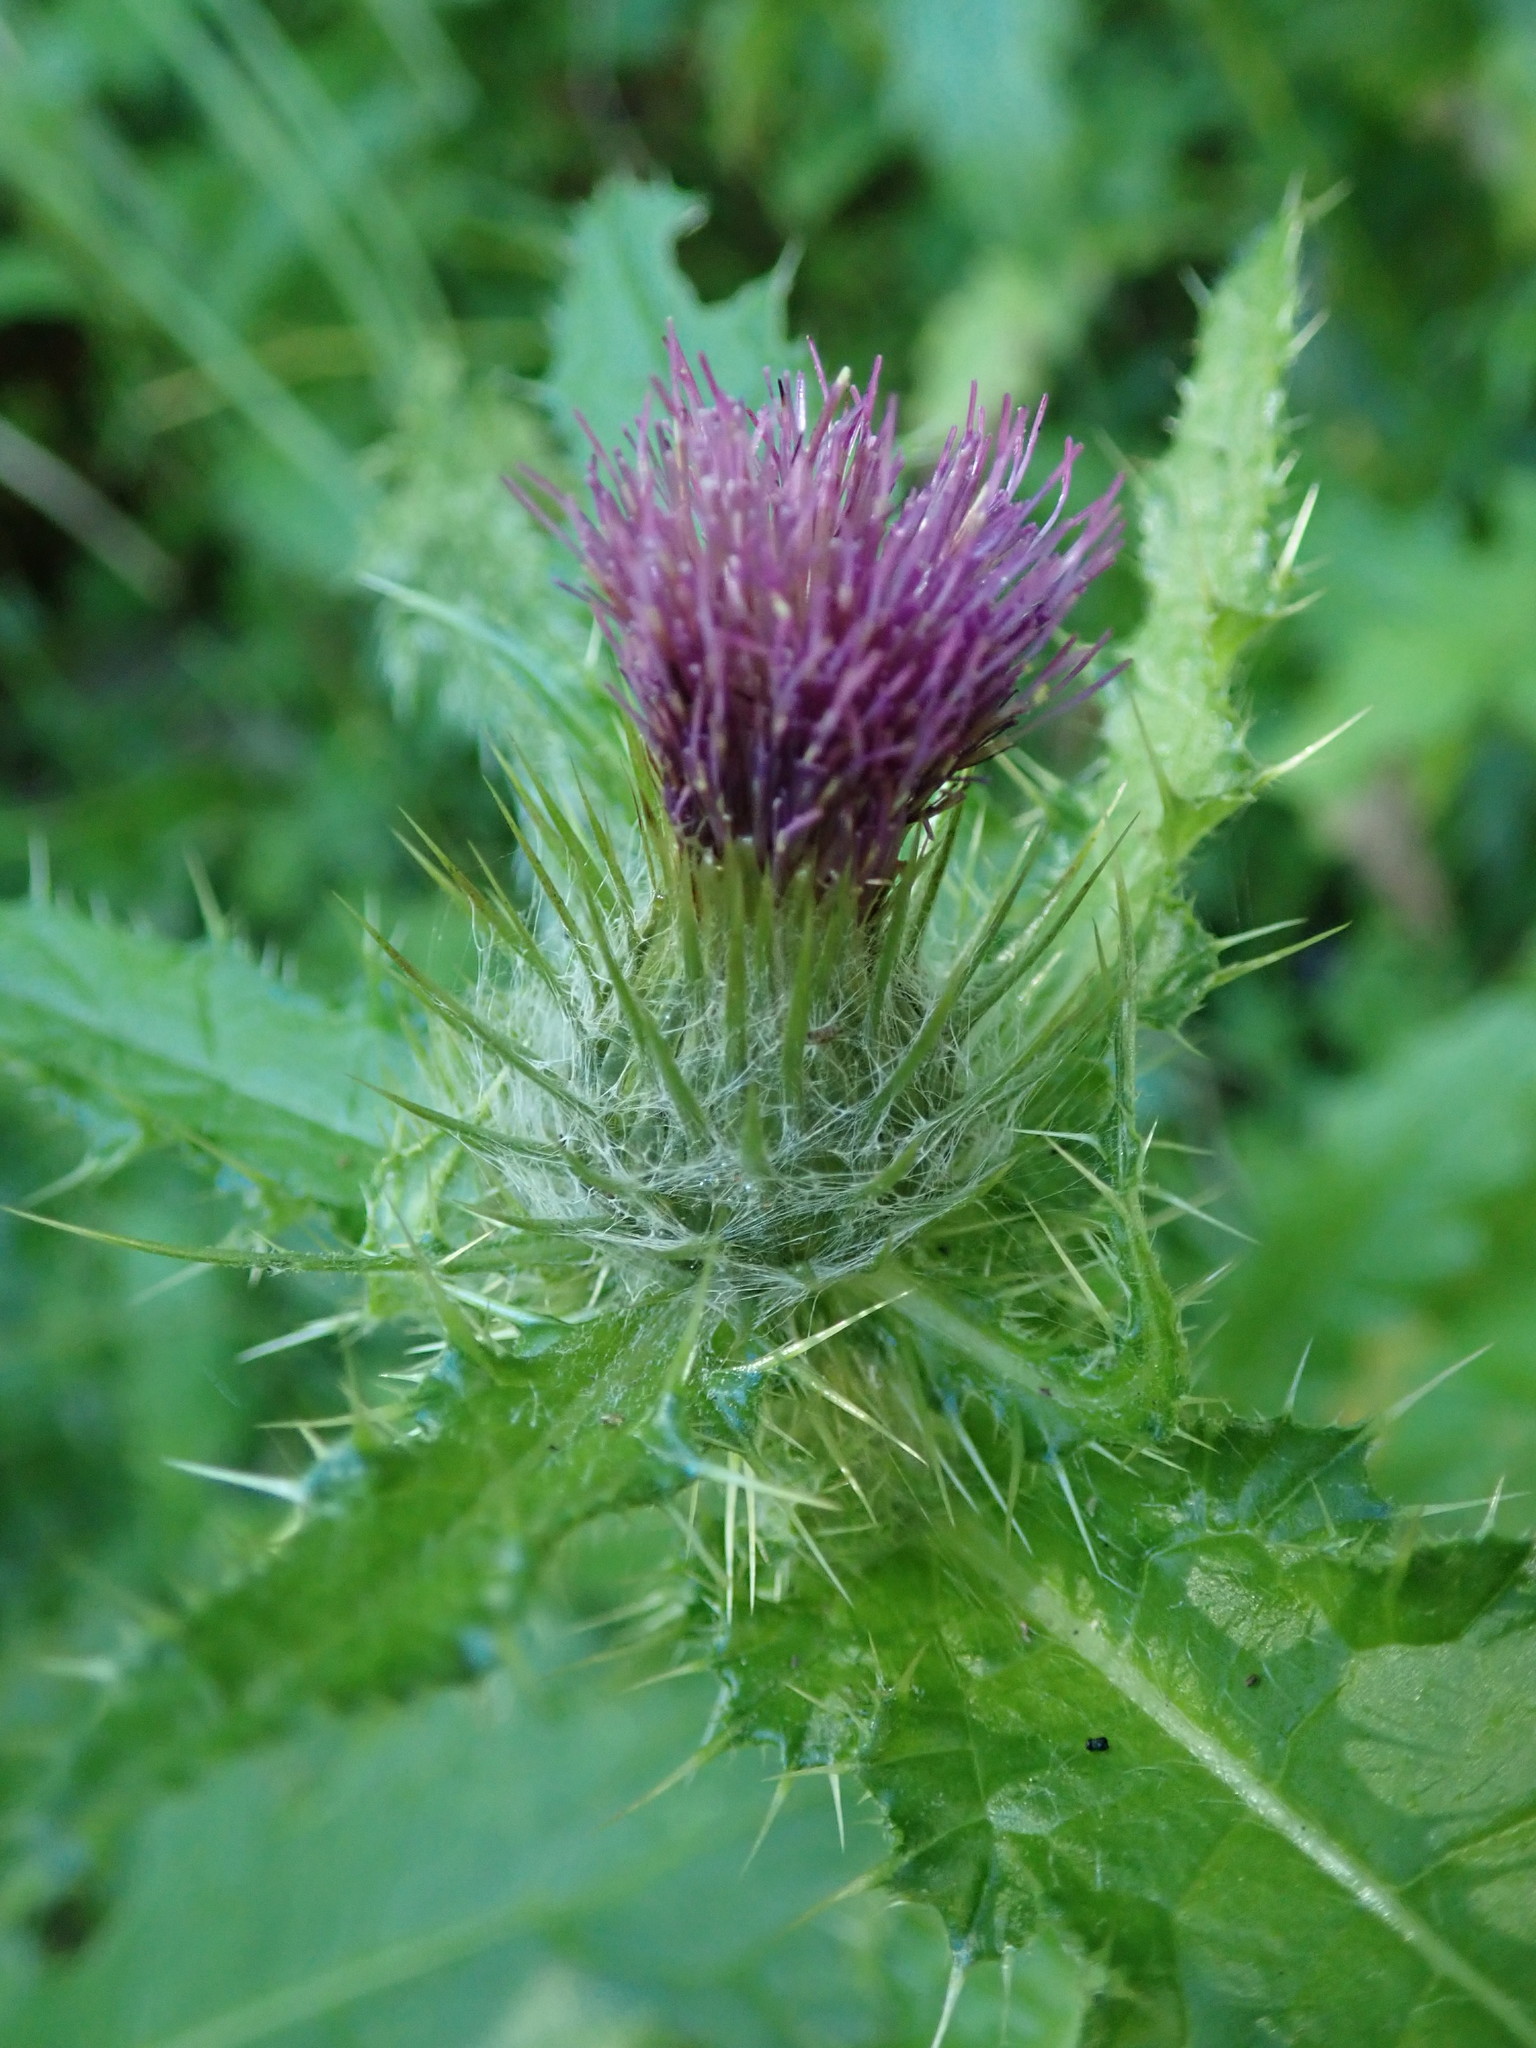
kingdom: Plantae
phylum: Tracheophyta
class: Magnoliopsida
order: Asterales
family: Asteraceae
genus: Cirsium
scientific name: Cirsium brevistylum
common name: Indian thistle
